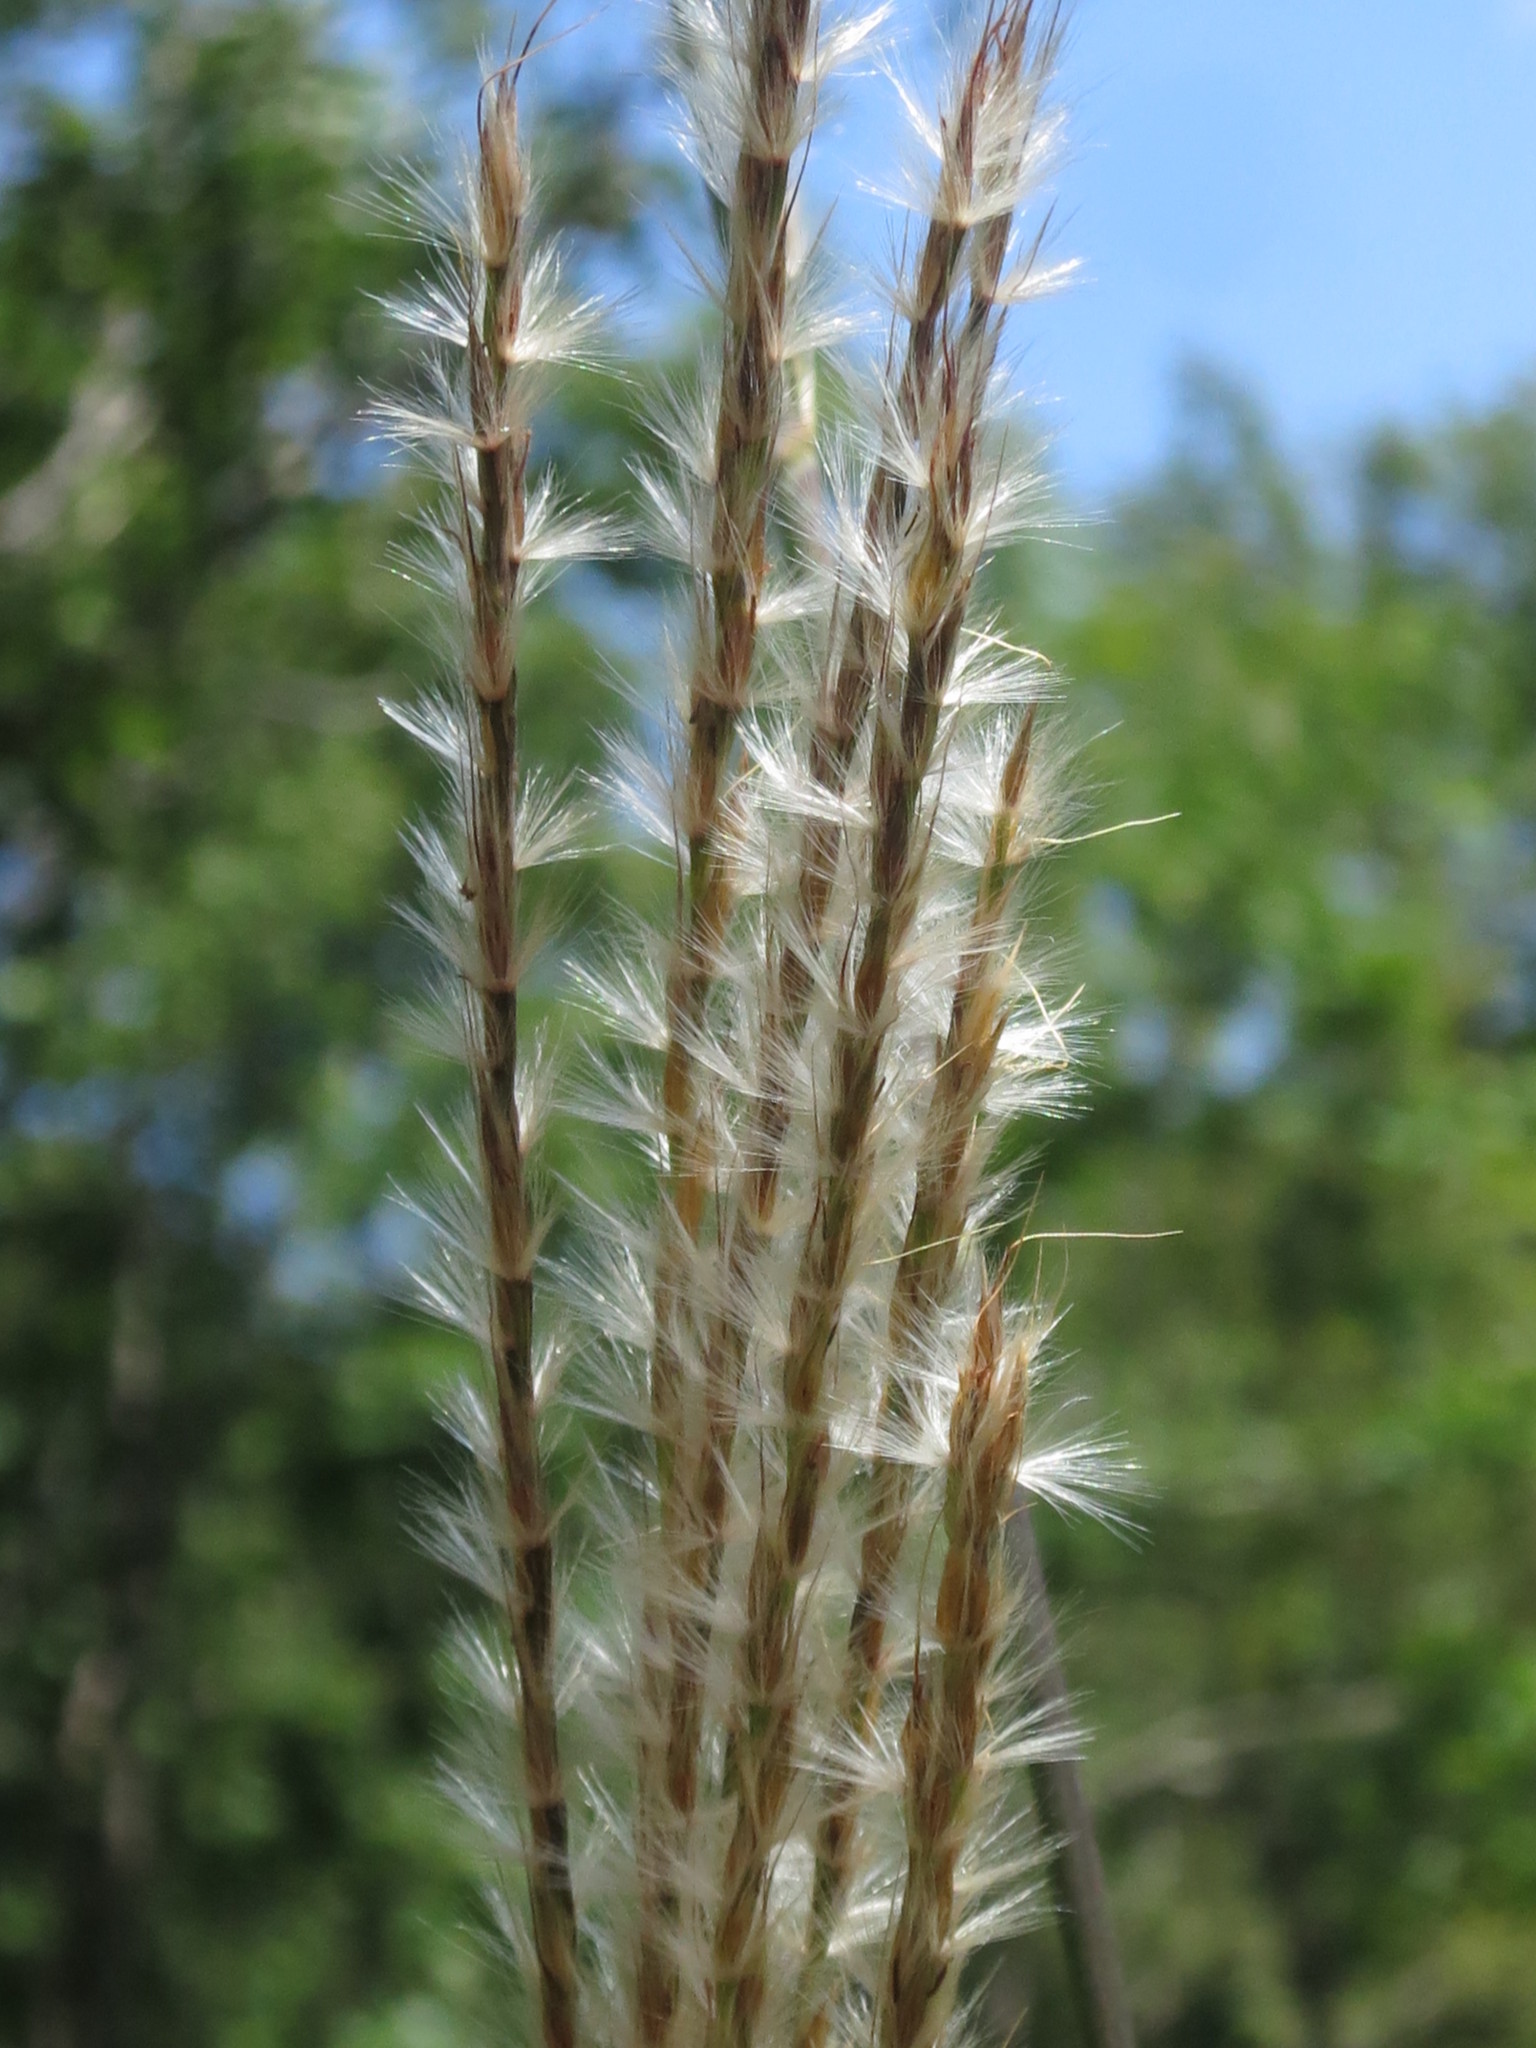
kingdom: Plantae
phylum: Tracheophyta
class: Liliopsida
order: Poales
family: Poaceae
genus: Miscanthus
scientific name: Miscanthus sinensis
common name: Chinese silvergrass
